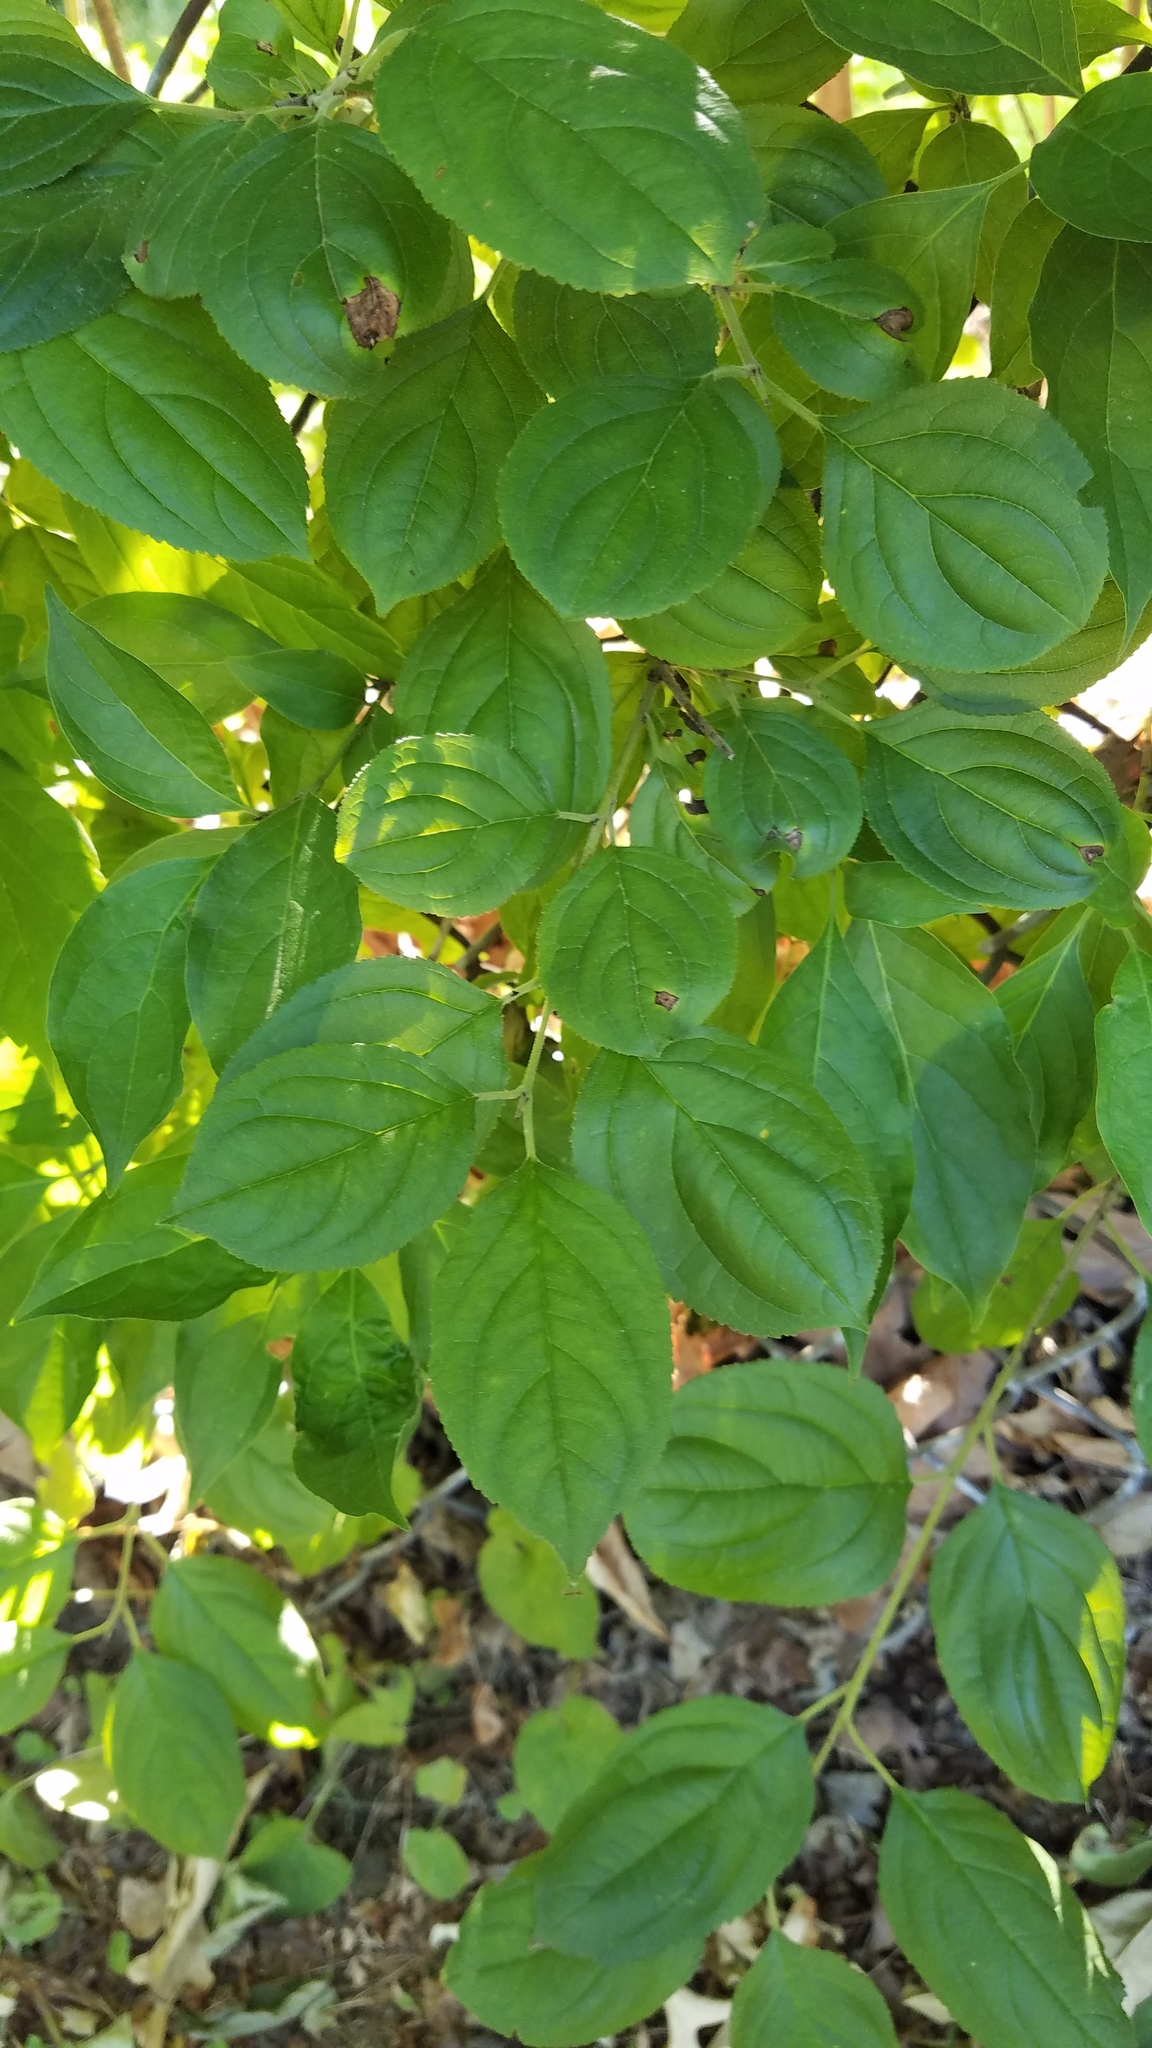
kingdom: Plantae
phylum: Tracheophyta
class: Magnoliopsida
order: Rosales
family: Rhamnaceae
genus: Rhamnus
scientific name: Rhamnus cathartica
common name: Common buckthorn
